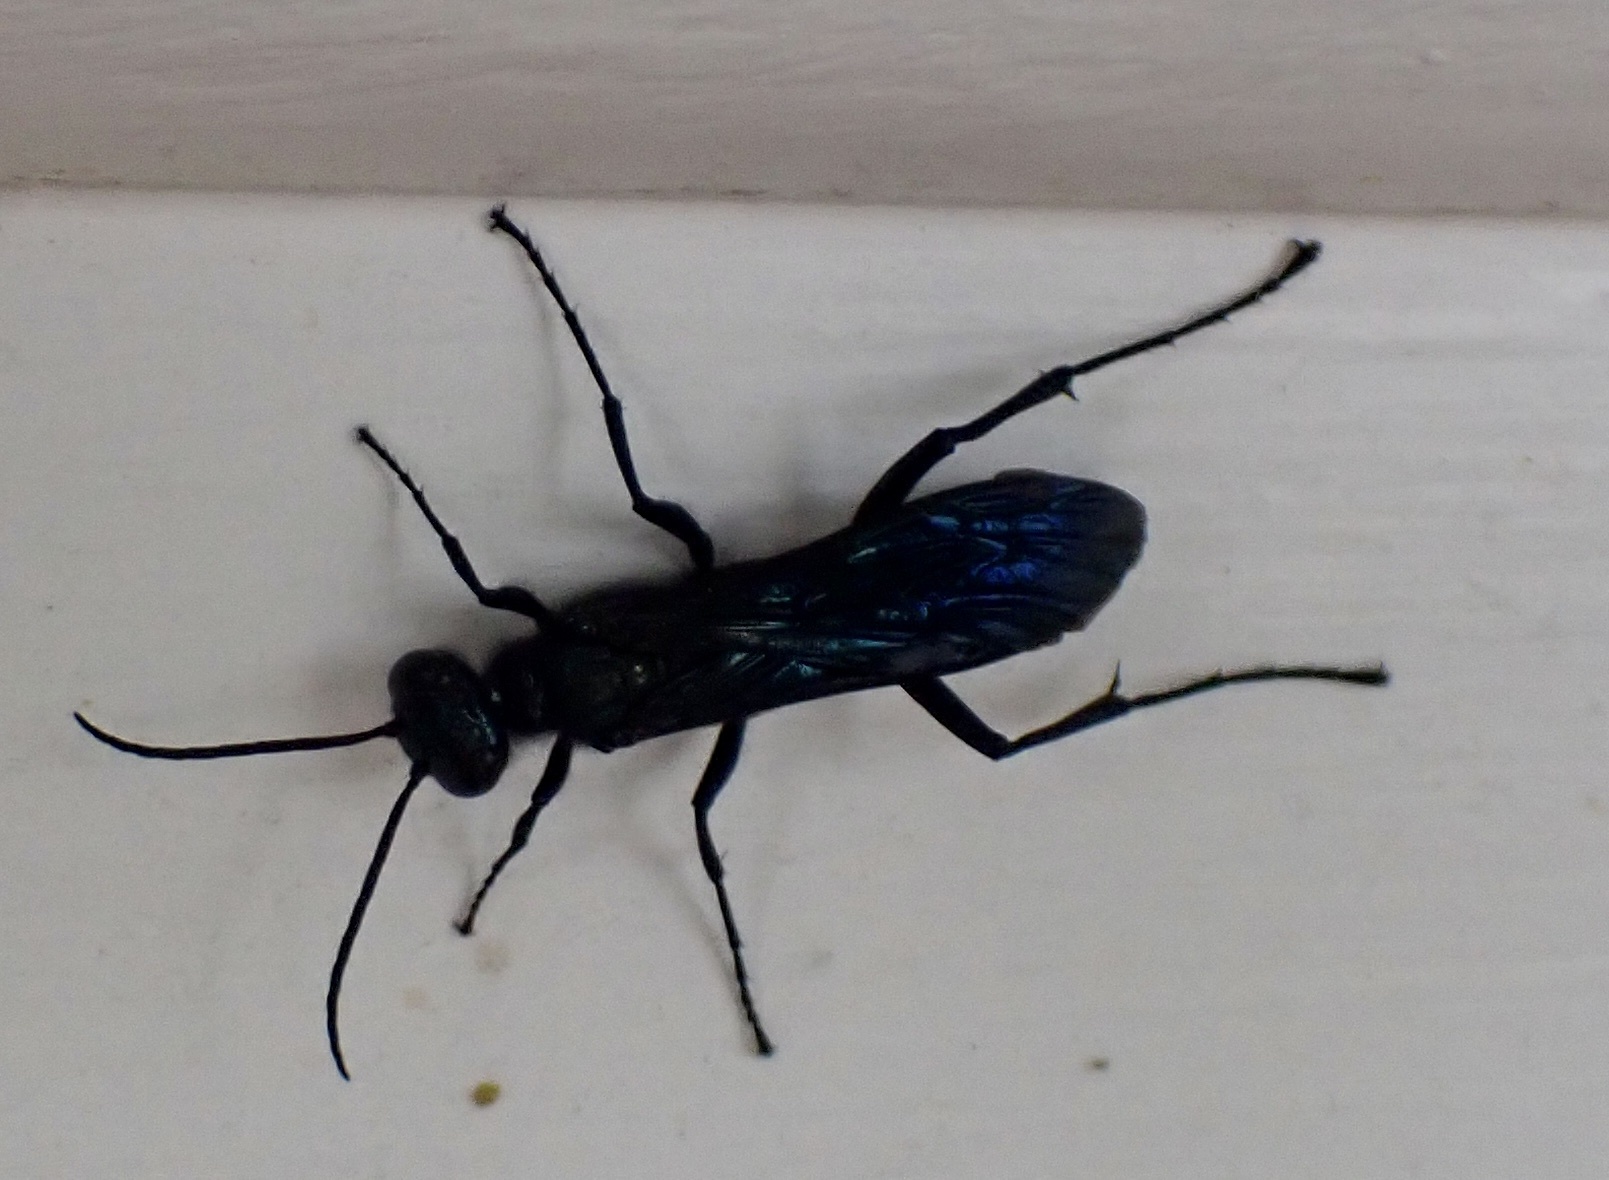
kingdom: Animalia
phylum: Arthropoda
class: Insecta
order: Hymenoptera
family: Sphecidae
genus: Chalybion
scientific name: Chalybion californicum
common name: Mud dauber
